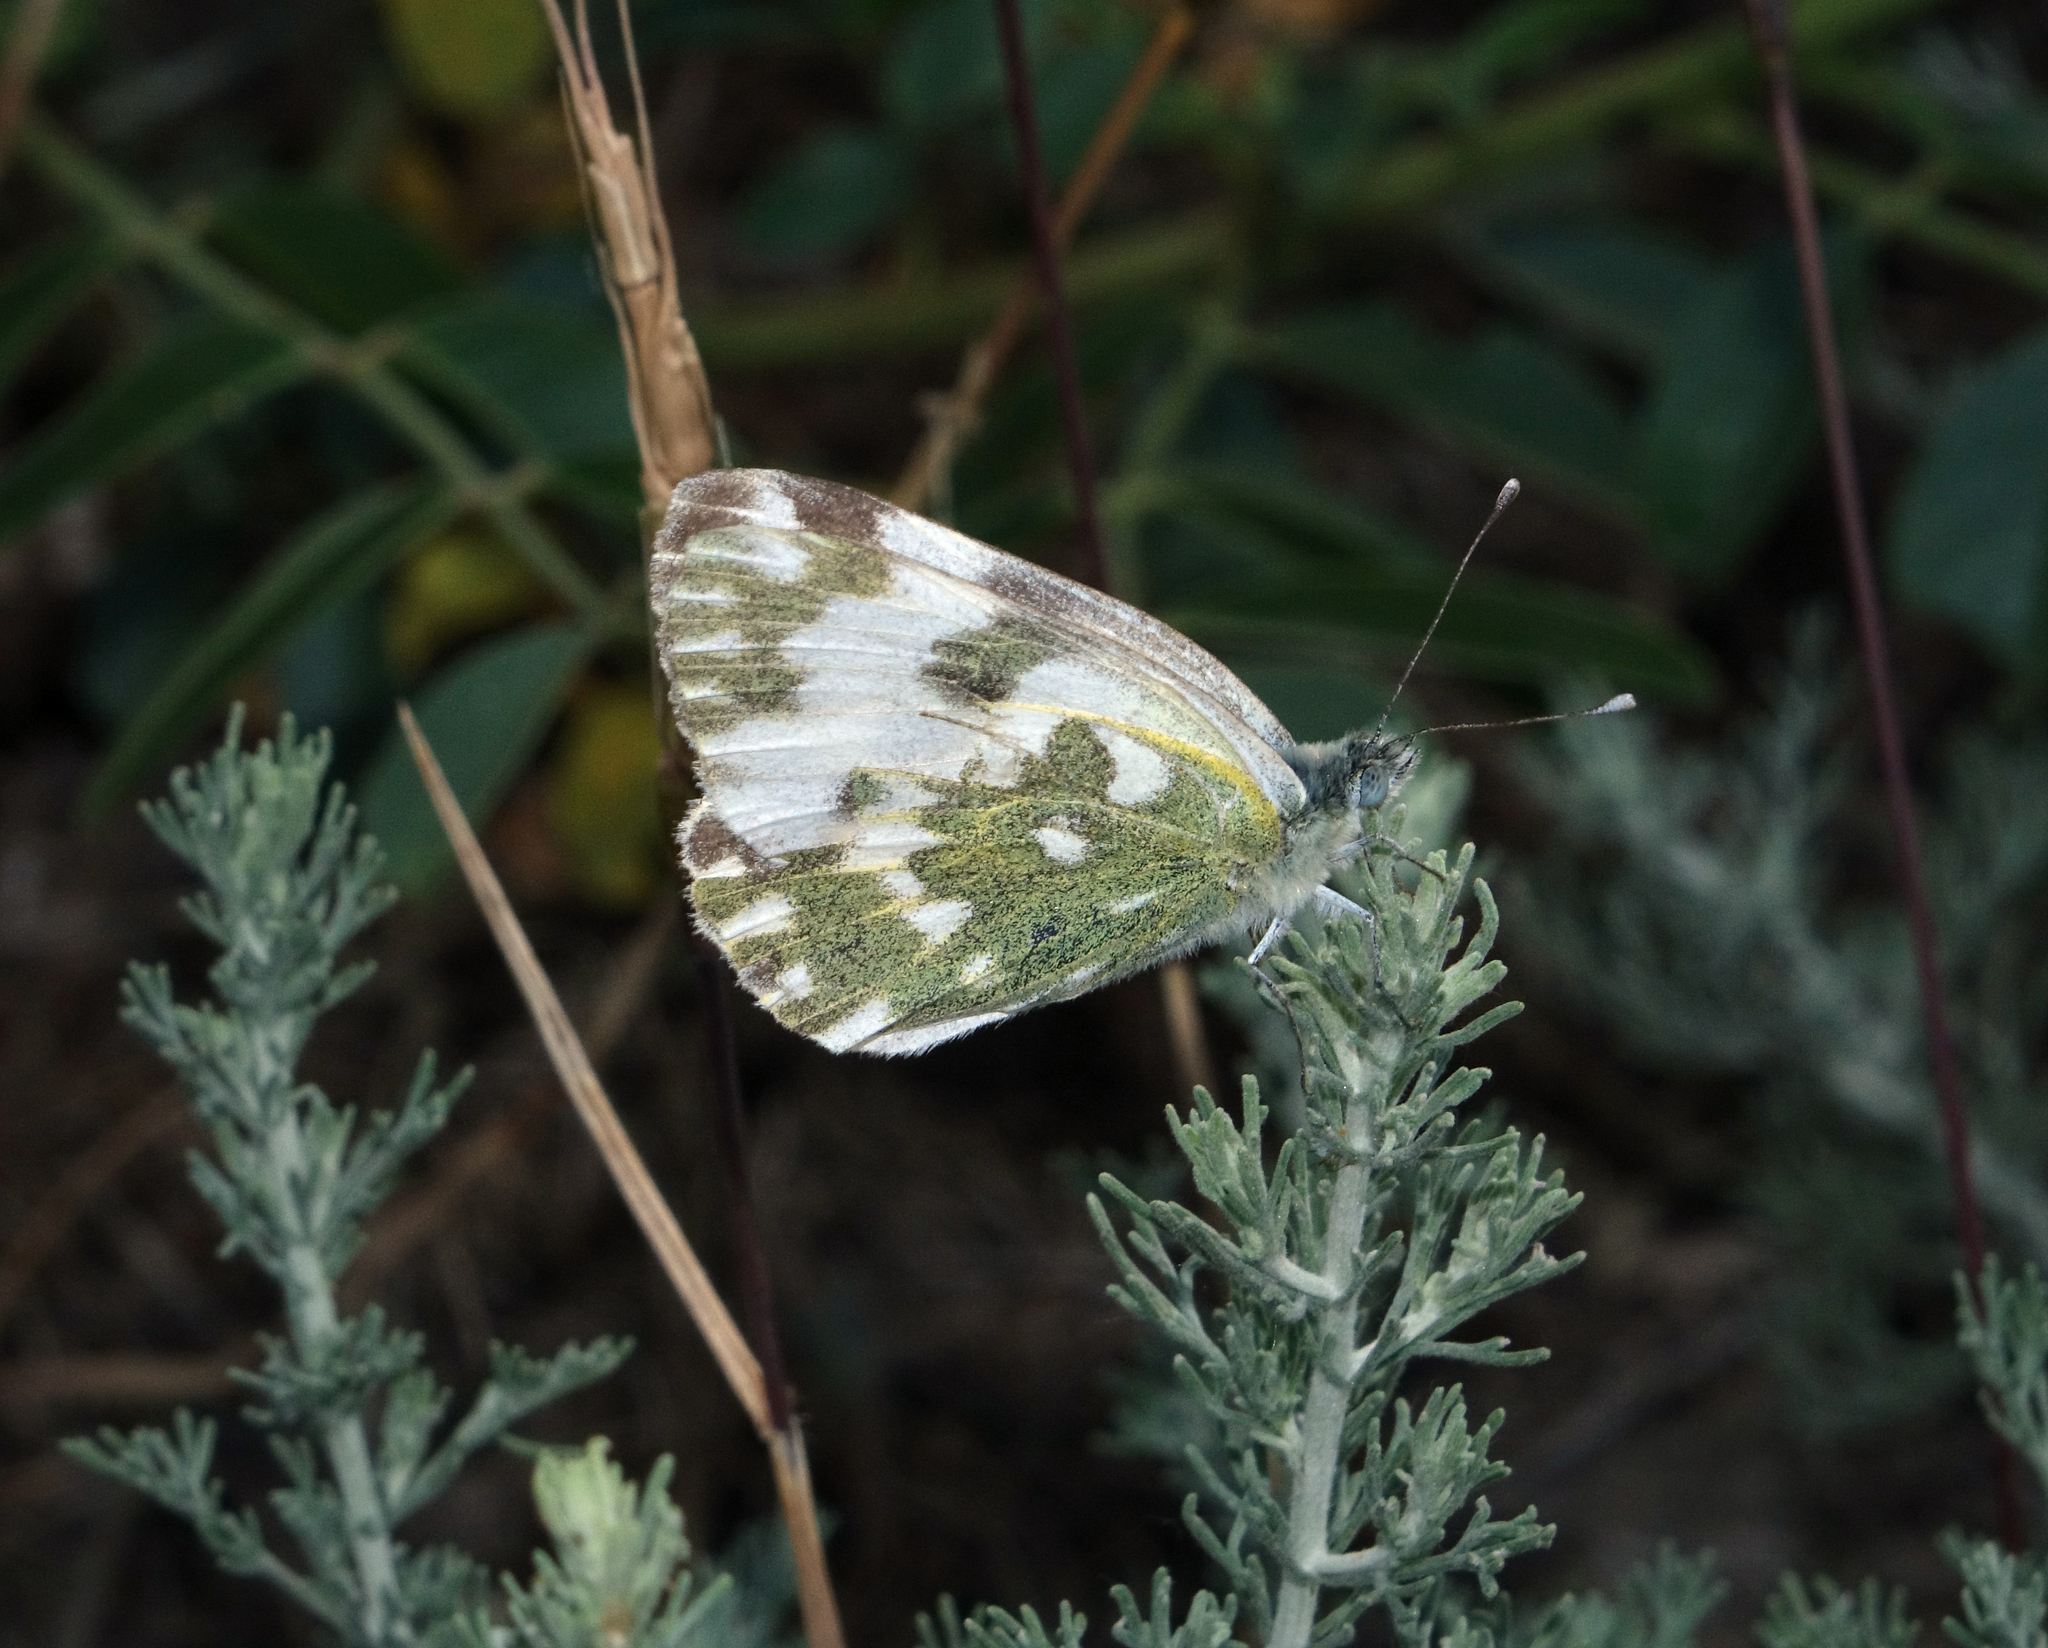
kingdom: Animalia
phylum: Arthropoda
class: Insecta
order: Lepidoptera
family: Pieridae
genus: Pontia
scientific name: Pontia edusa
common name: Eastern bath white
